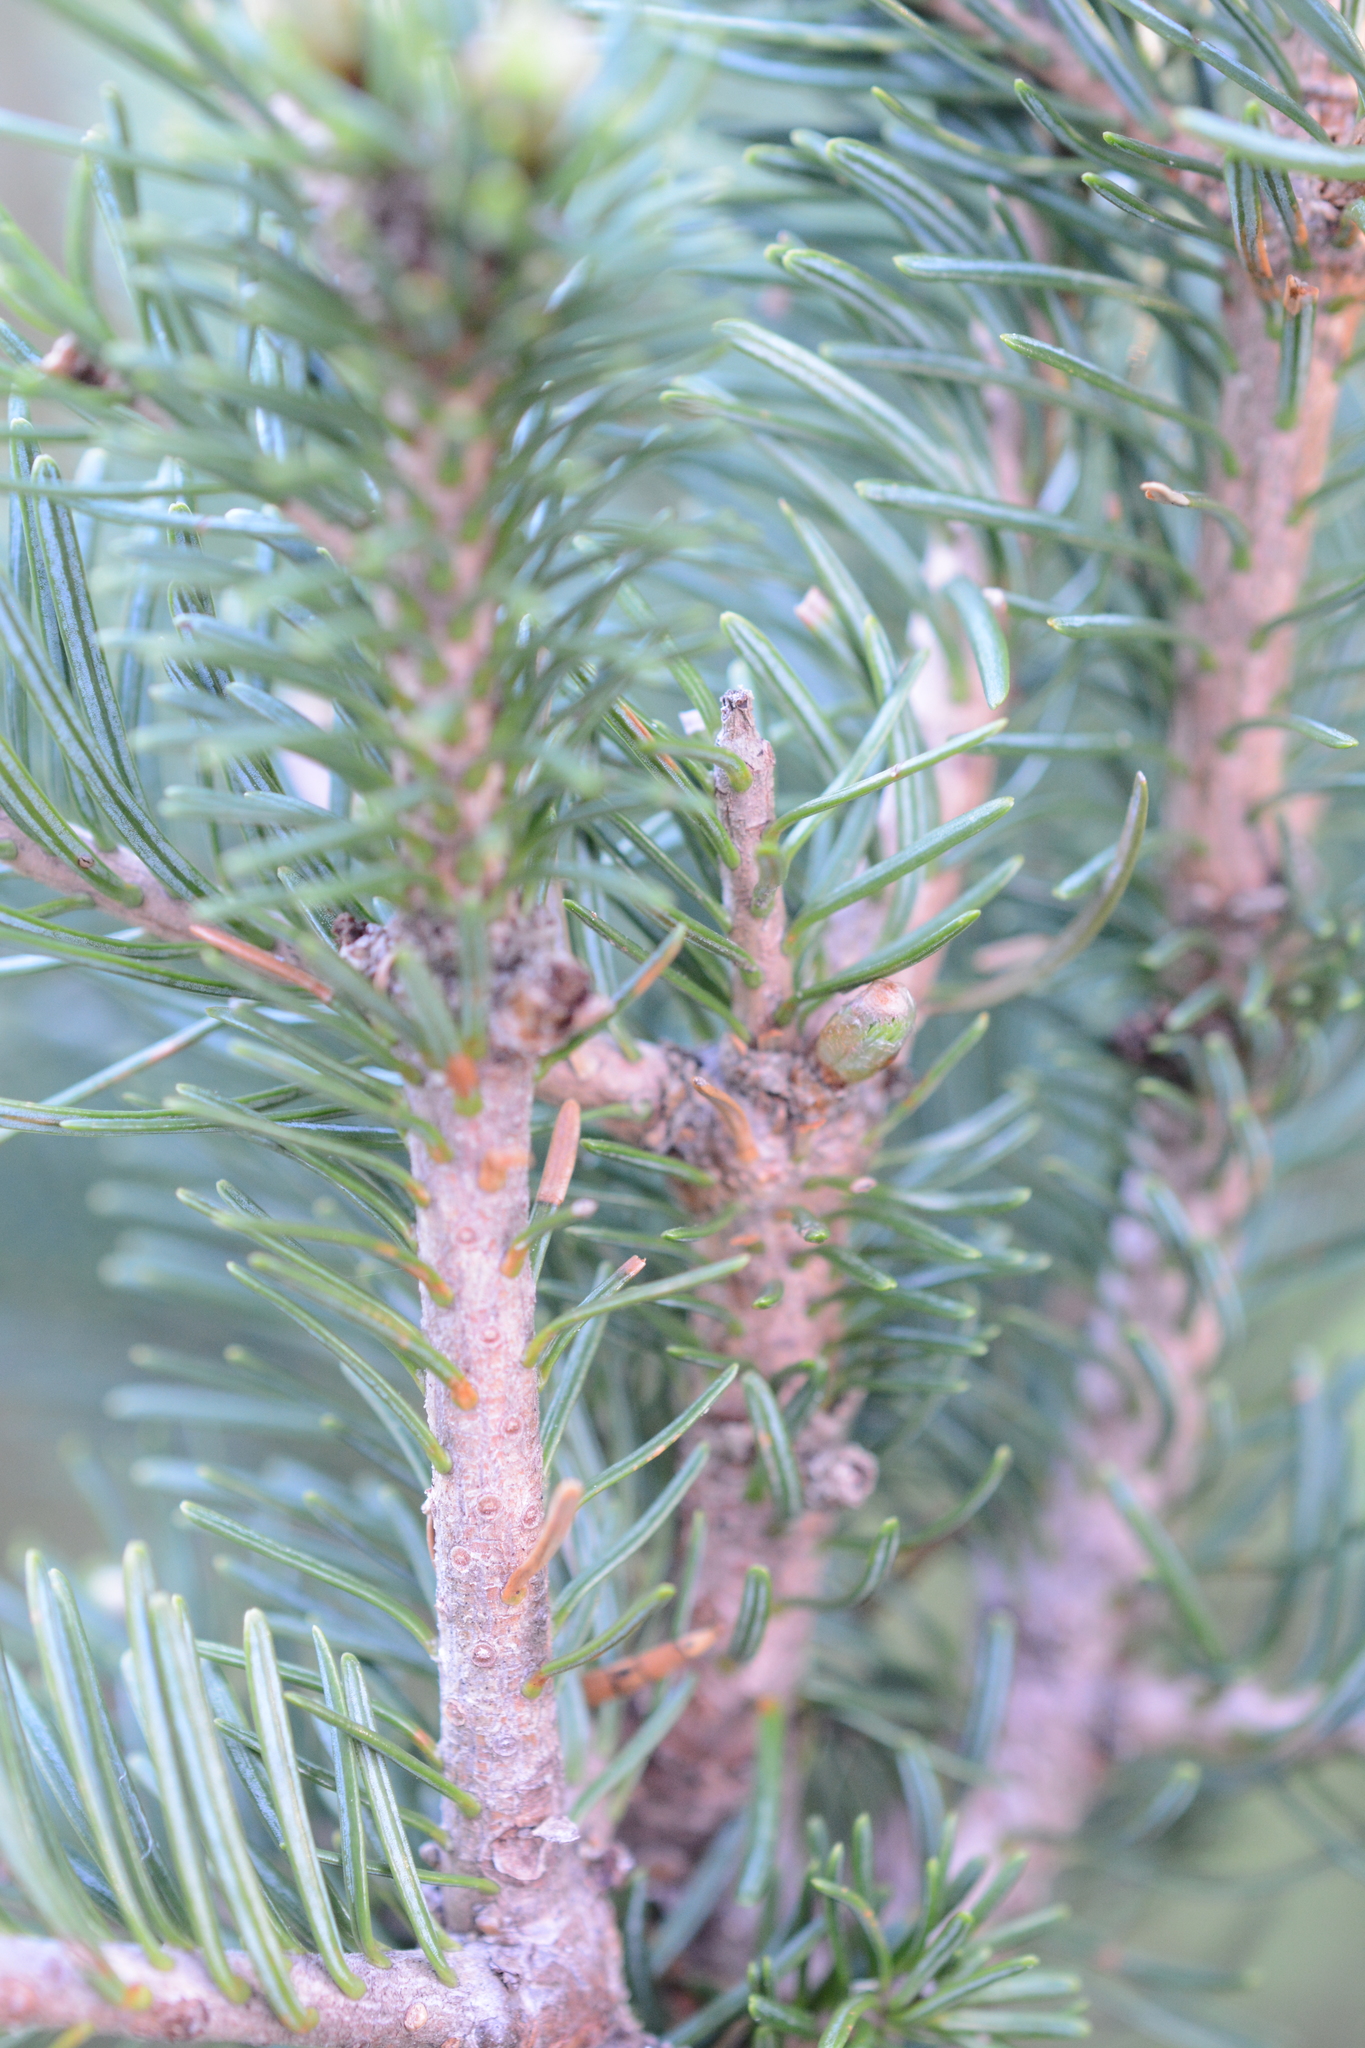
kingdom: Plantae
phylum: Tracheophyta
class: Pinopsida
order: Pinales
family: Pinaceae
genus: Picea
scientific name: Picea sitchensis
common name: Sitka spruce
